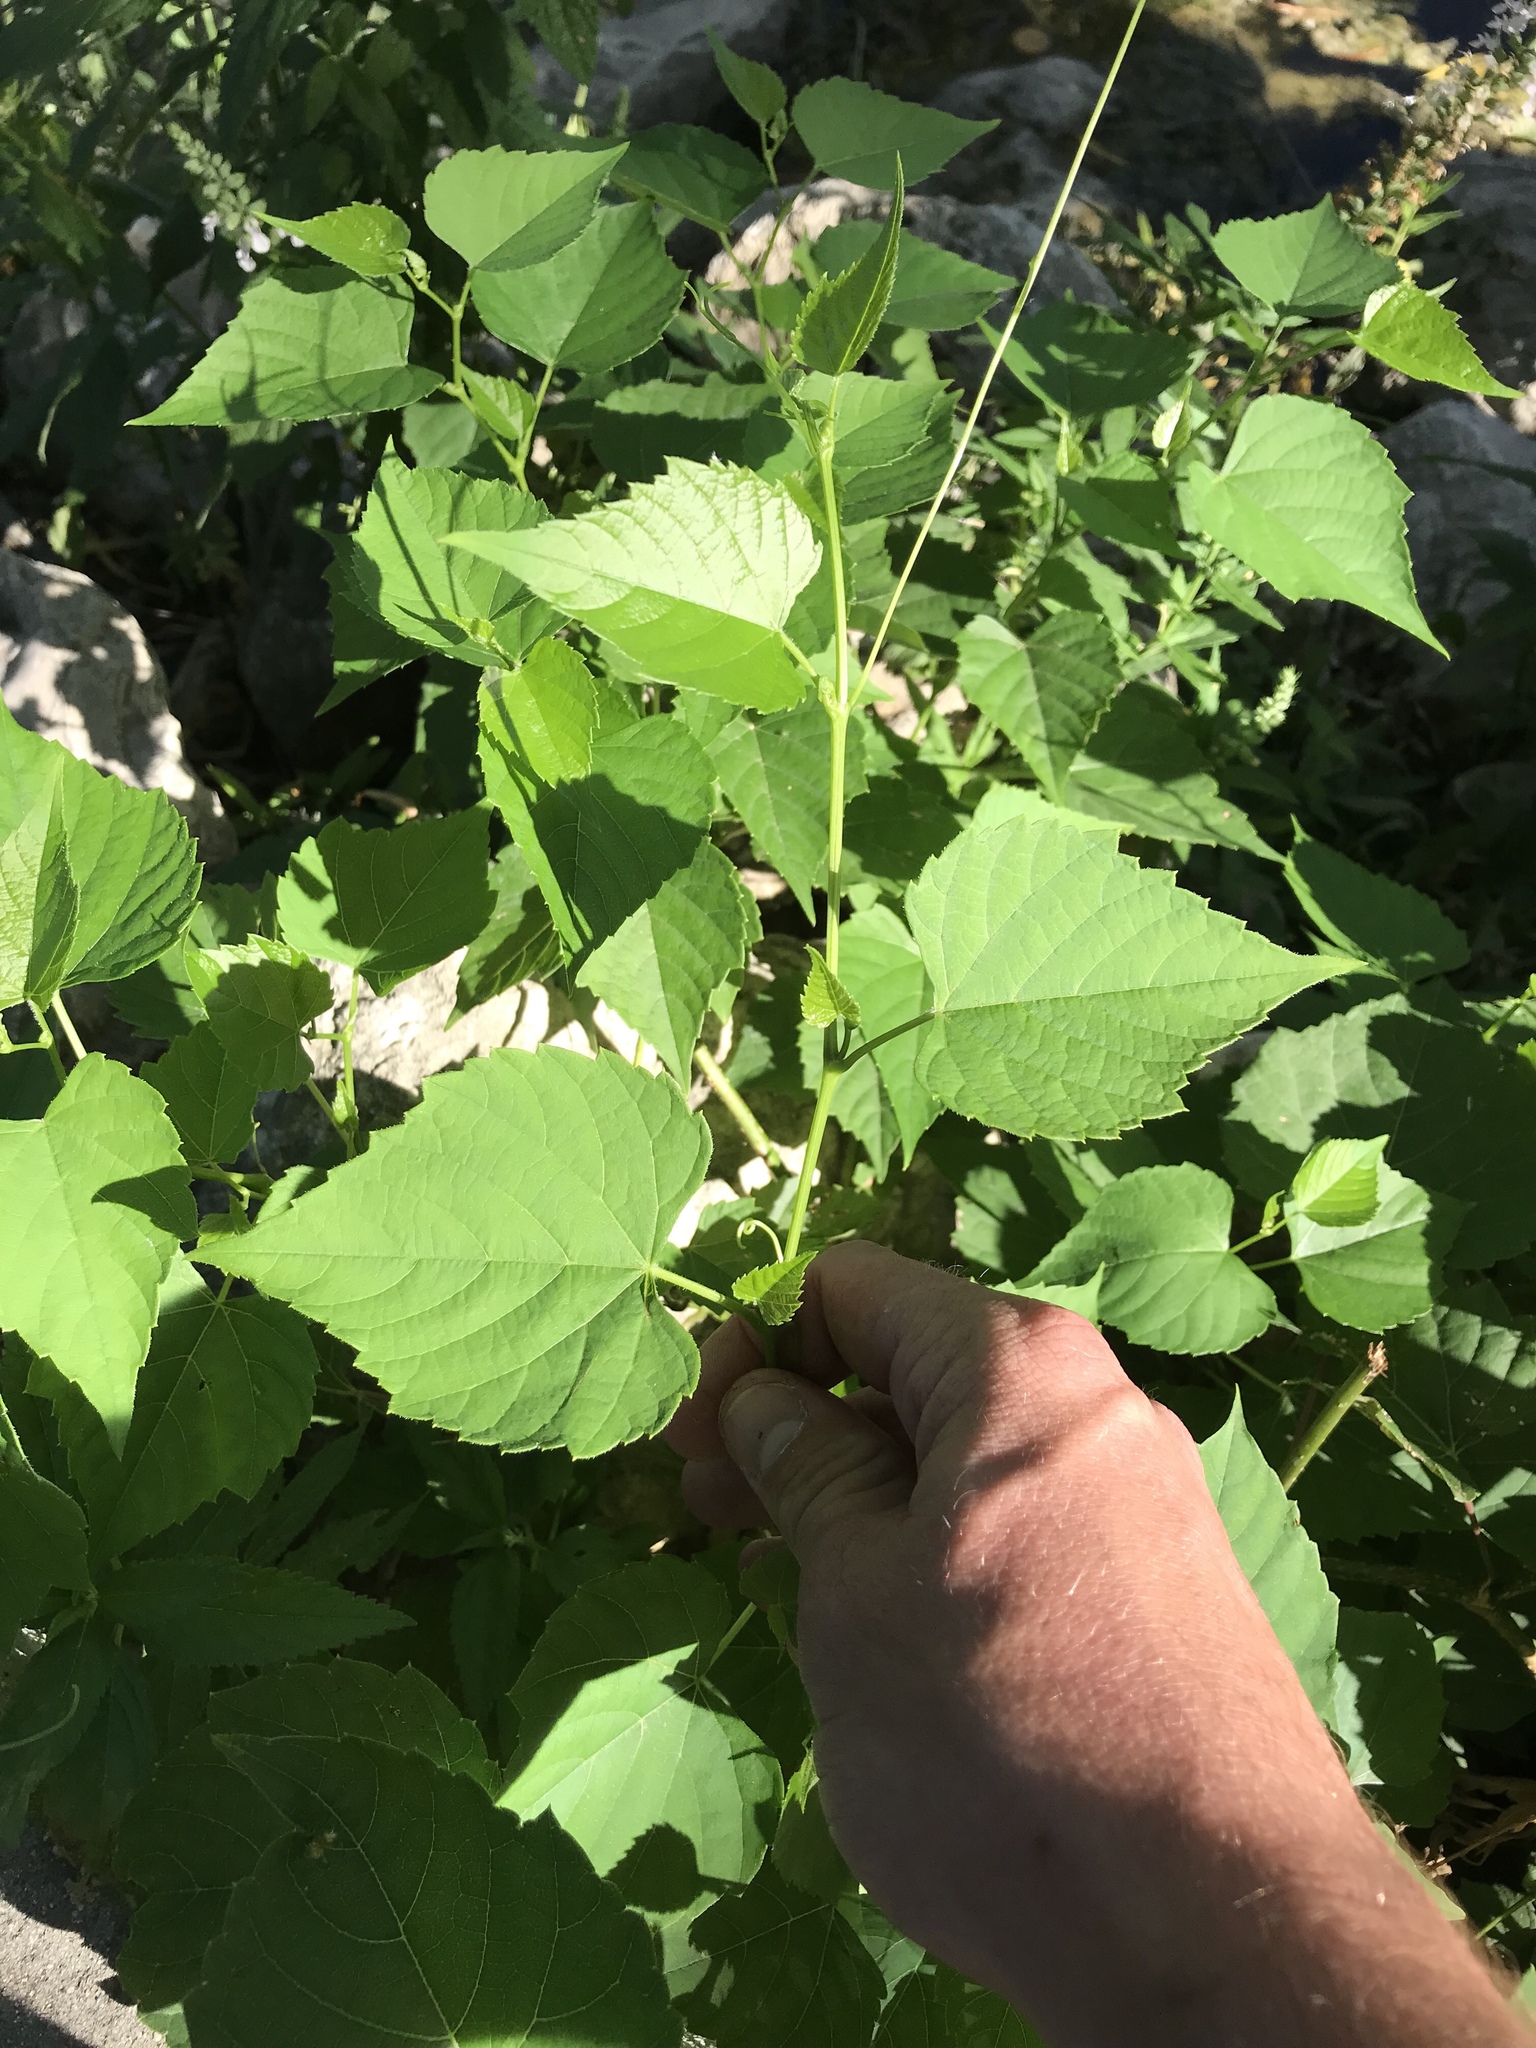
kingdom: Plantae
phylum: Tracheophyta
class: Magnoliopsida
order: Vitales
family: Vitaceae
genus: Ampelopsis
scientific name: Ampelopsis cordata
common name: Heart-leaf ampelopsis
